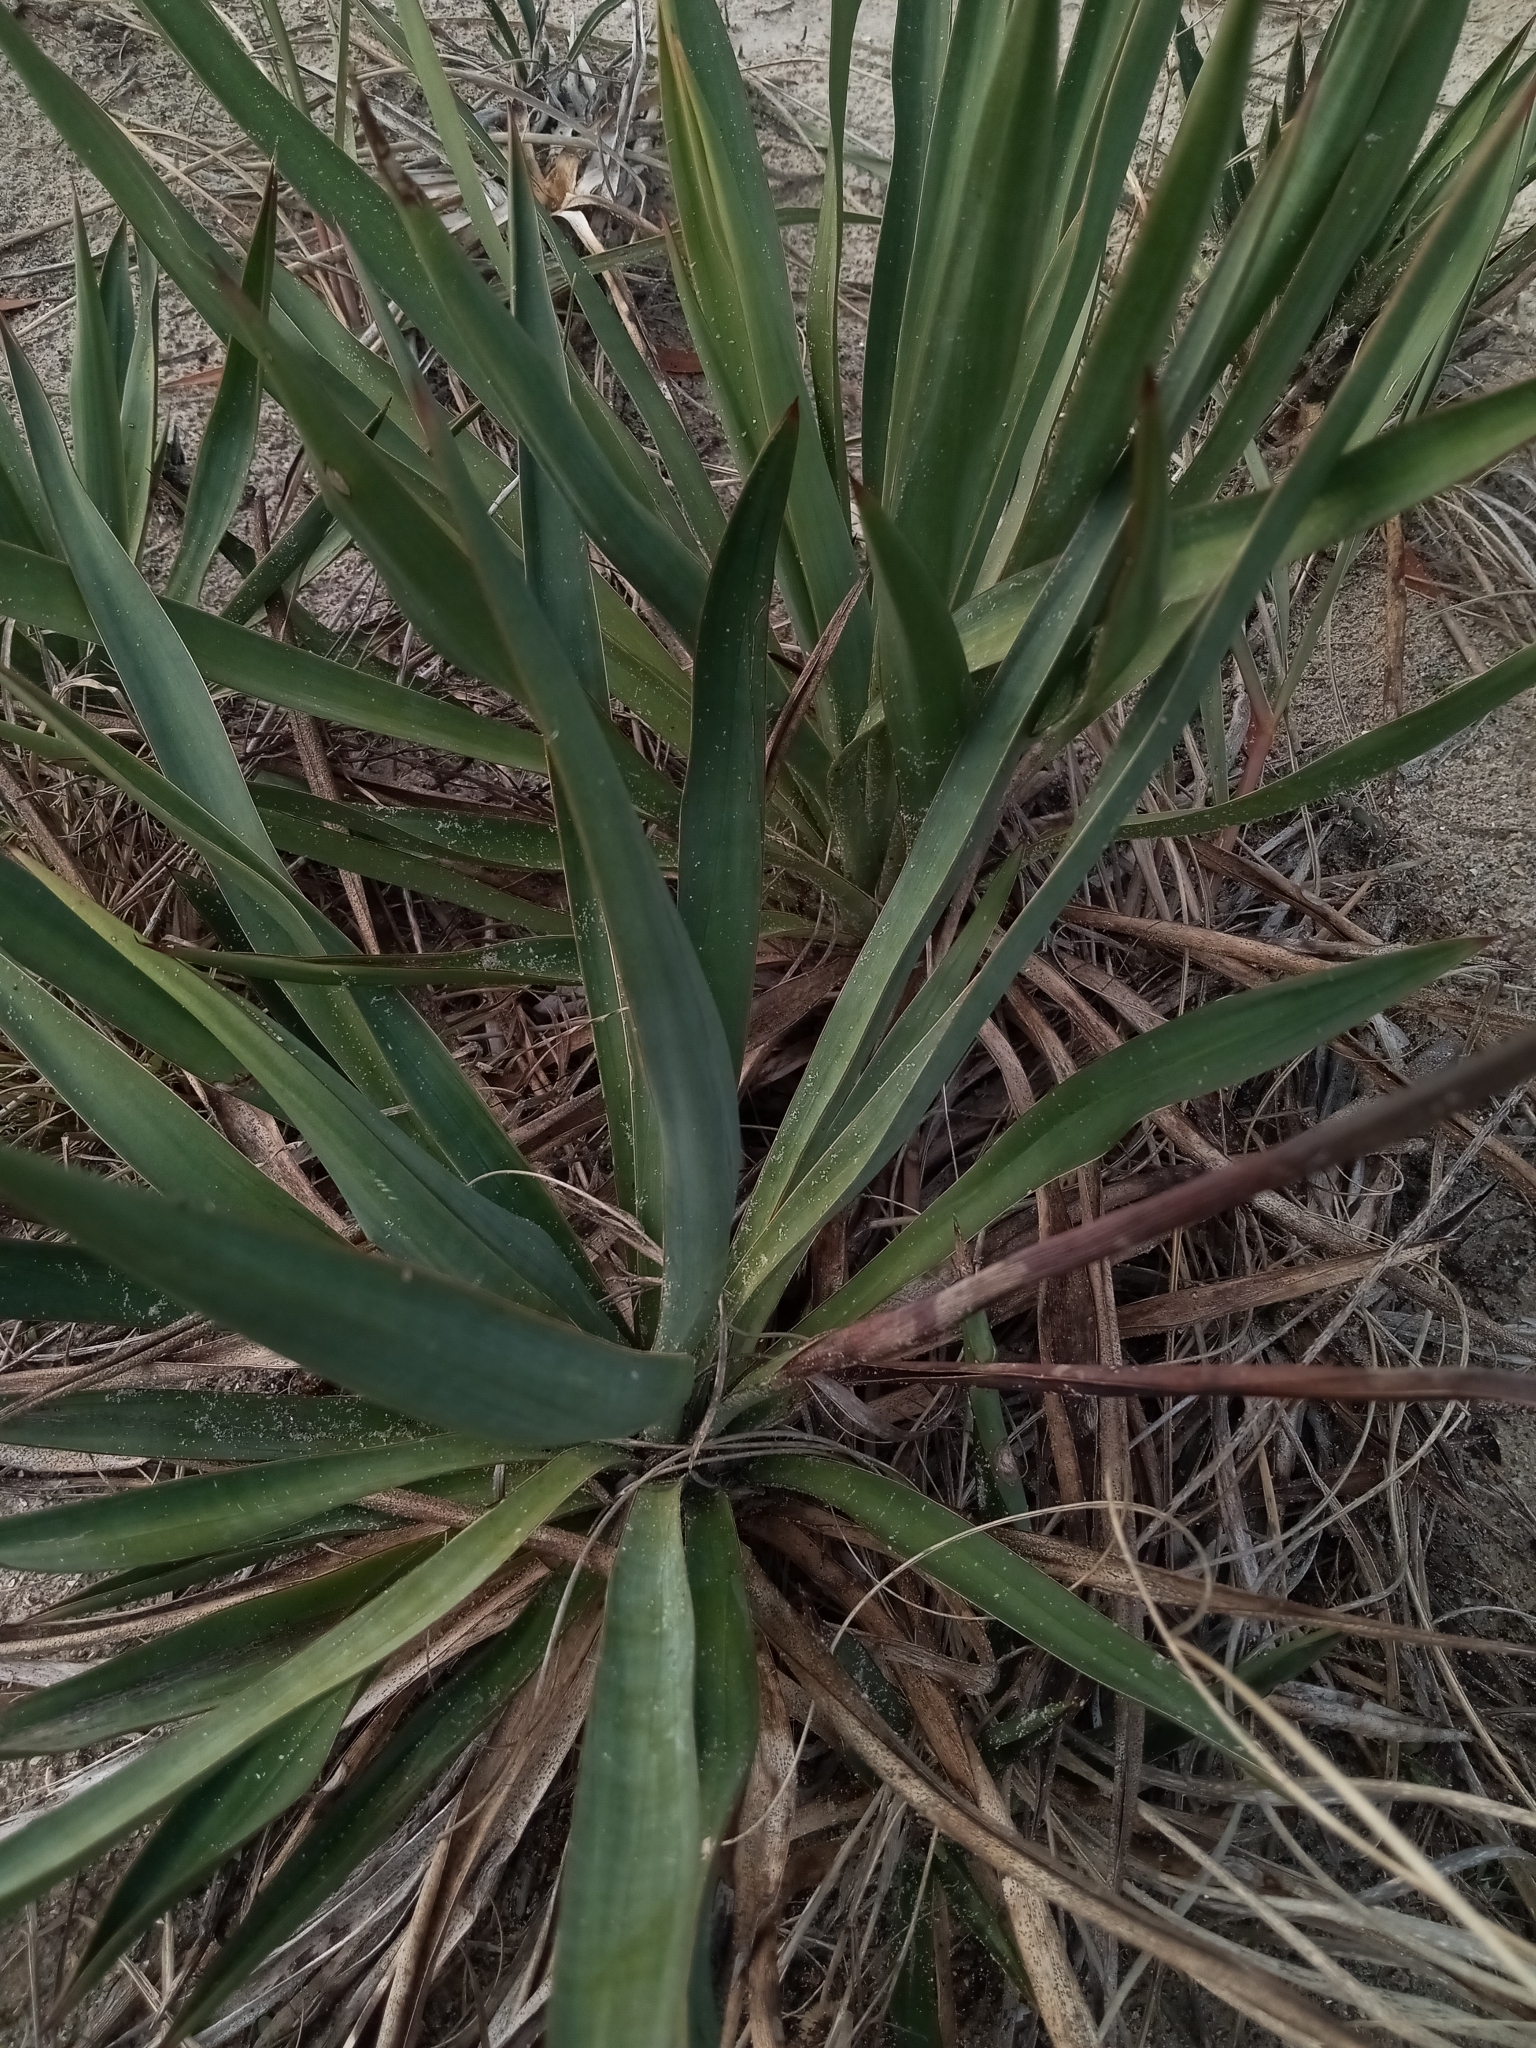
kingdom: Plantae
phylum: Tracheophyta
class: Liliopsida
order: Asparagales
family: Asparagaceae
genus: Yucca
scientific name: Yucca gloriosa
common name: Spanish-dagger
